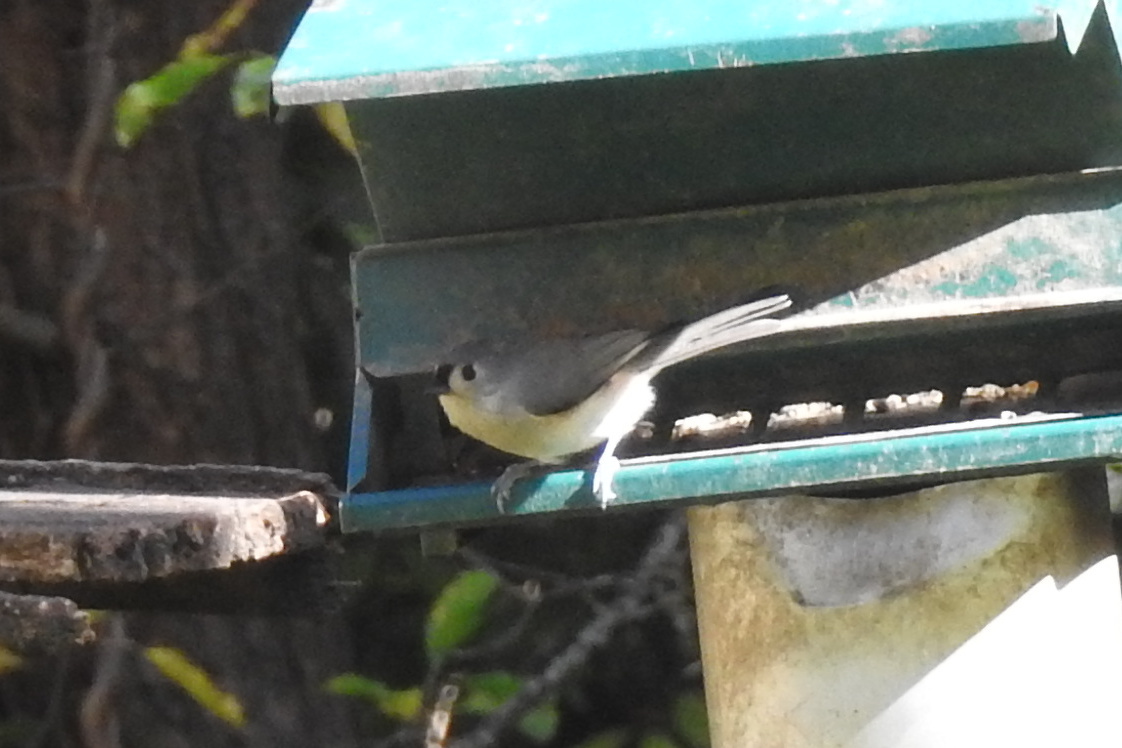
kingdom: Animalia
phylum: Chordata
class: Aves
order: Passeriformes
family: Paridae
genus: Baeolophus
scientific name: Baeolophus bicolor
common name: Tufted titmouse
